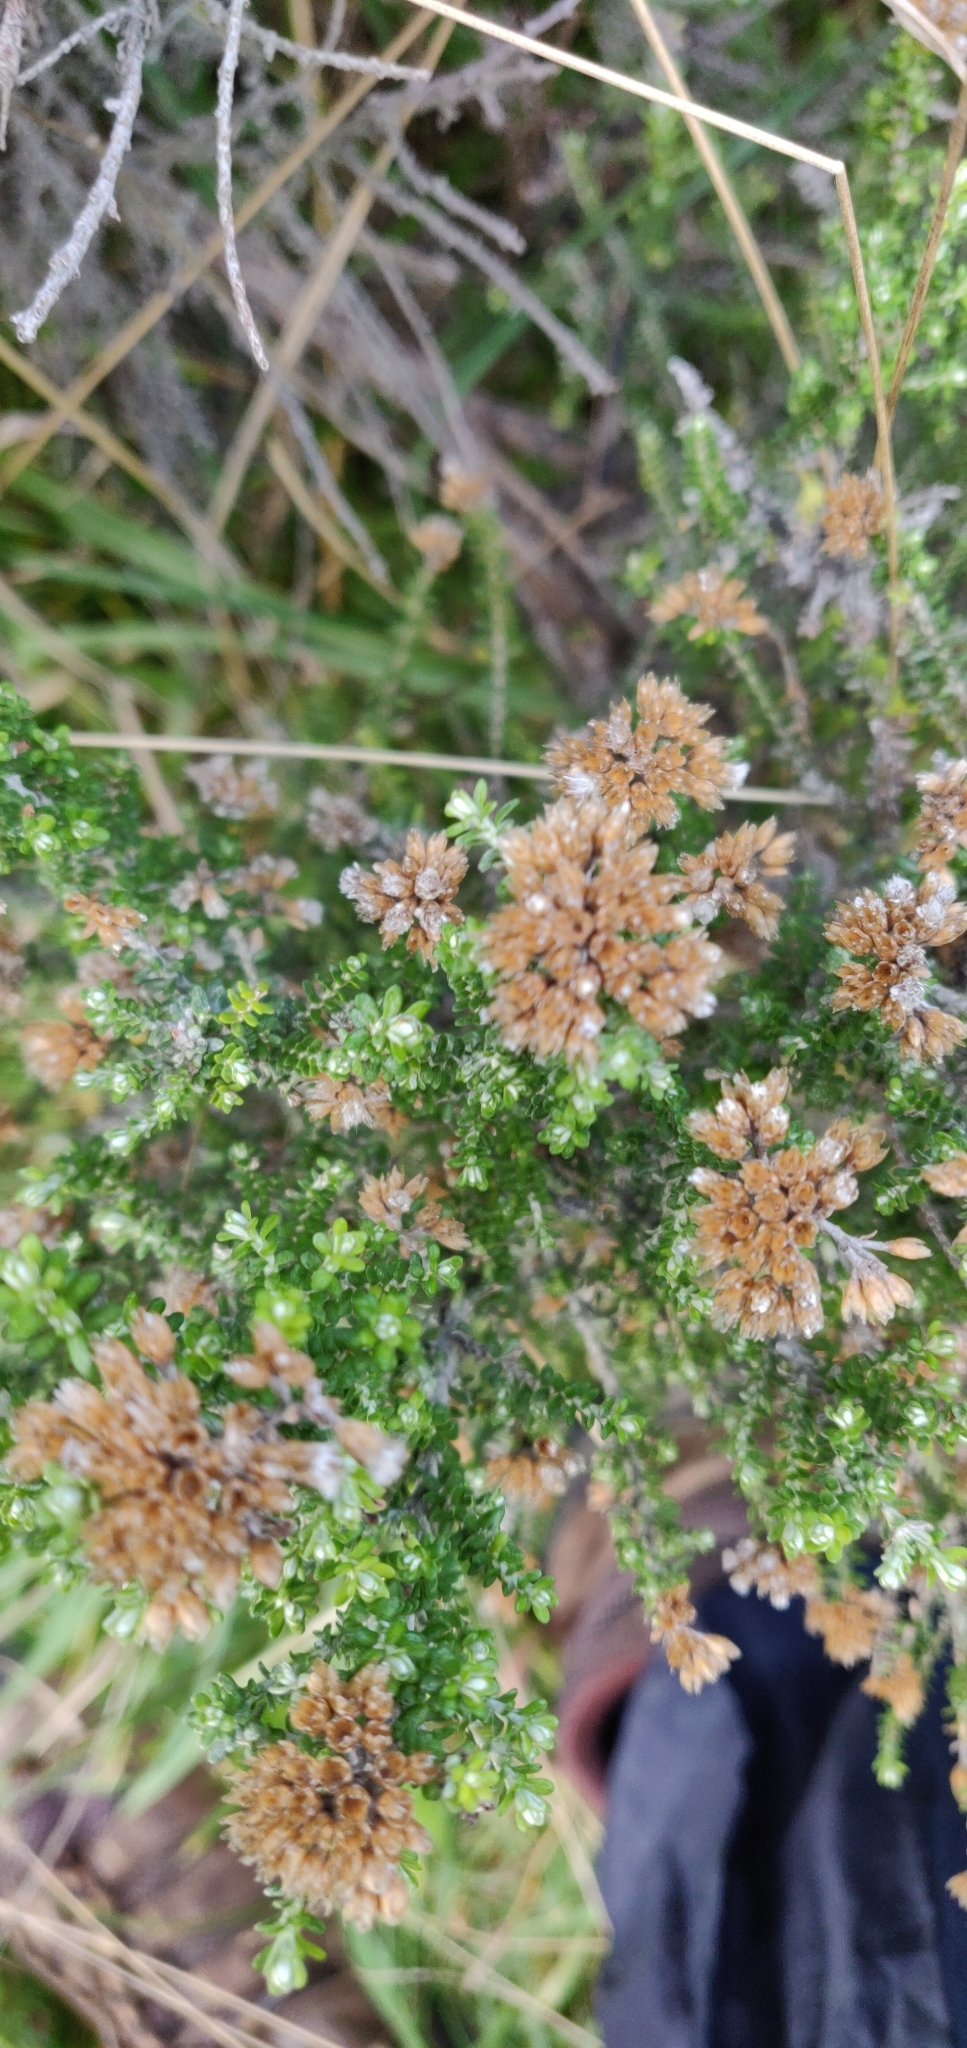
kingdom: Plantae
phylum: Tracheophyta
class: Magnoliopsida
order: Asterales
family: Asteraceae
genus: Ozothamnus
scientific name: Ozothamnus leptophyllus
